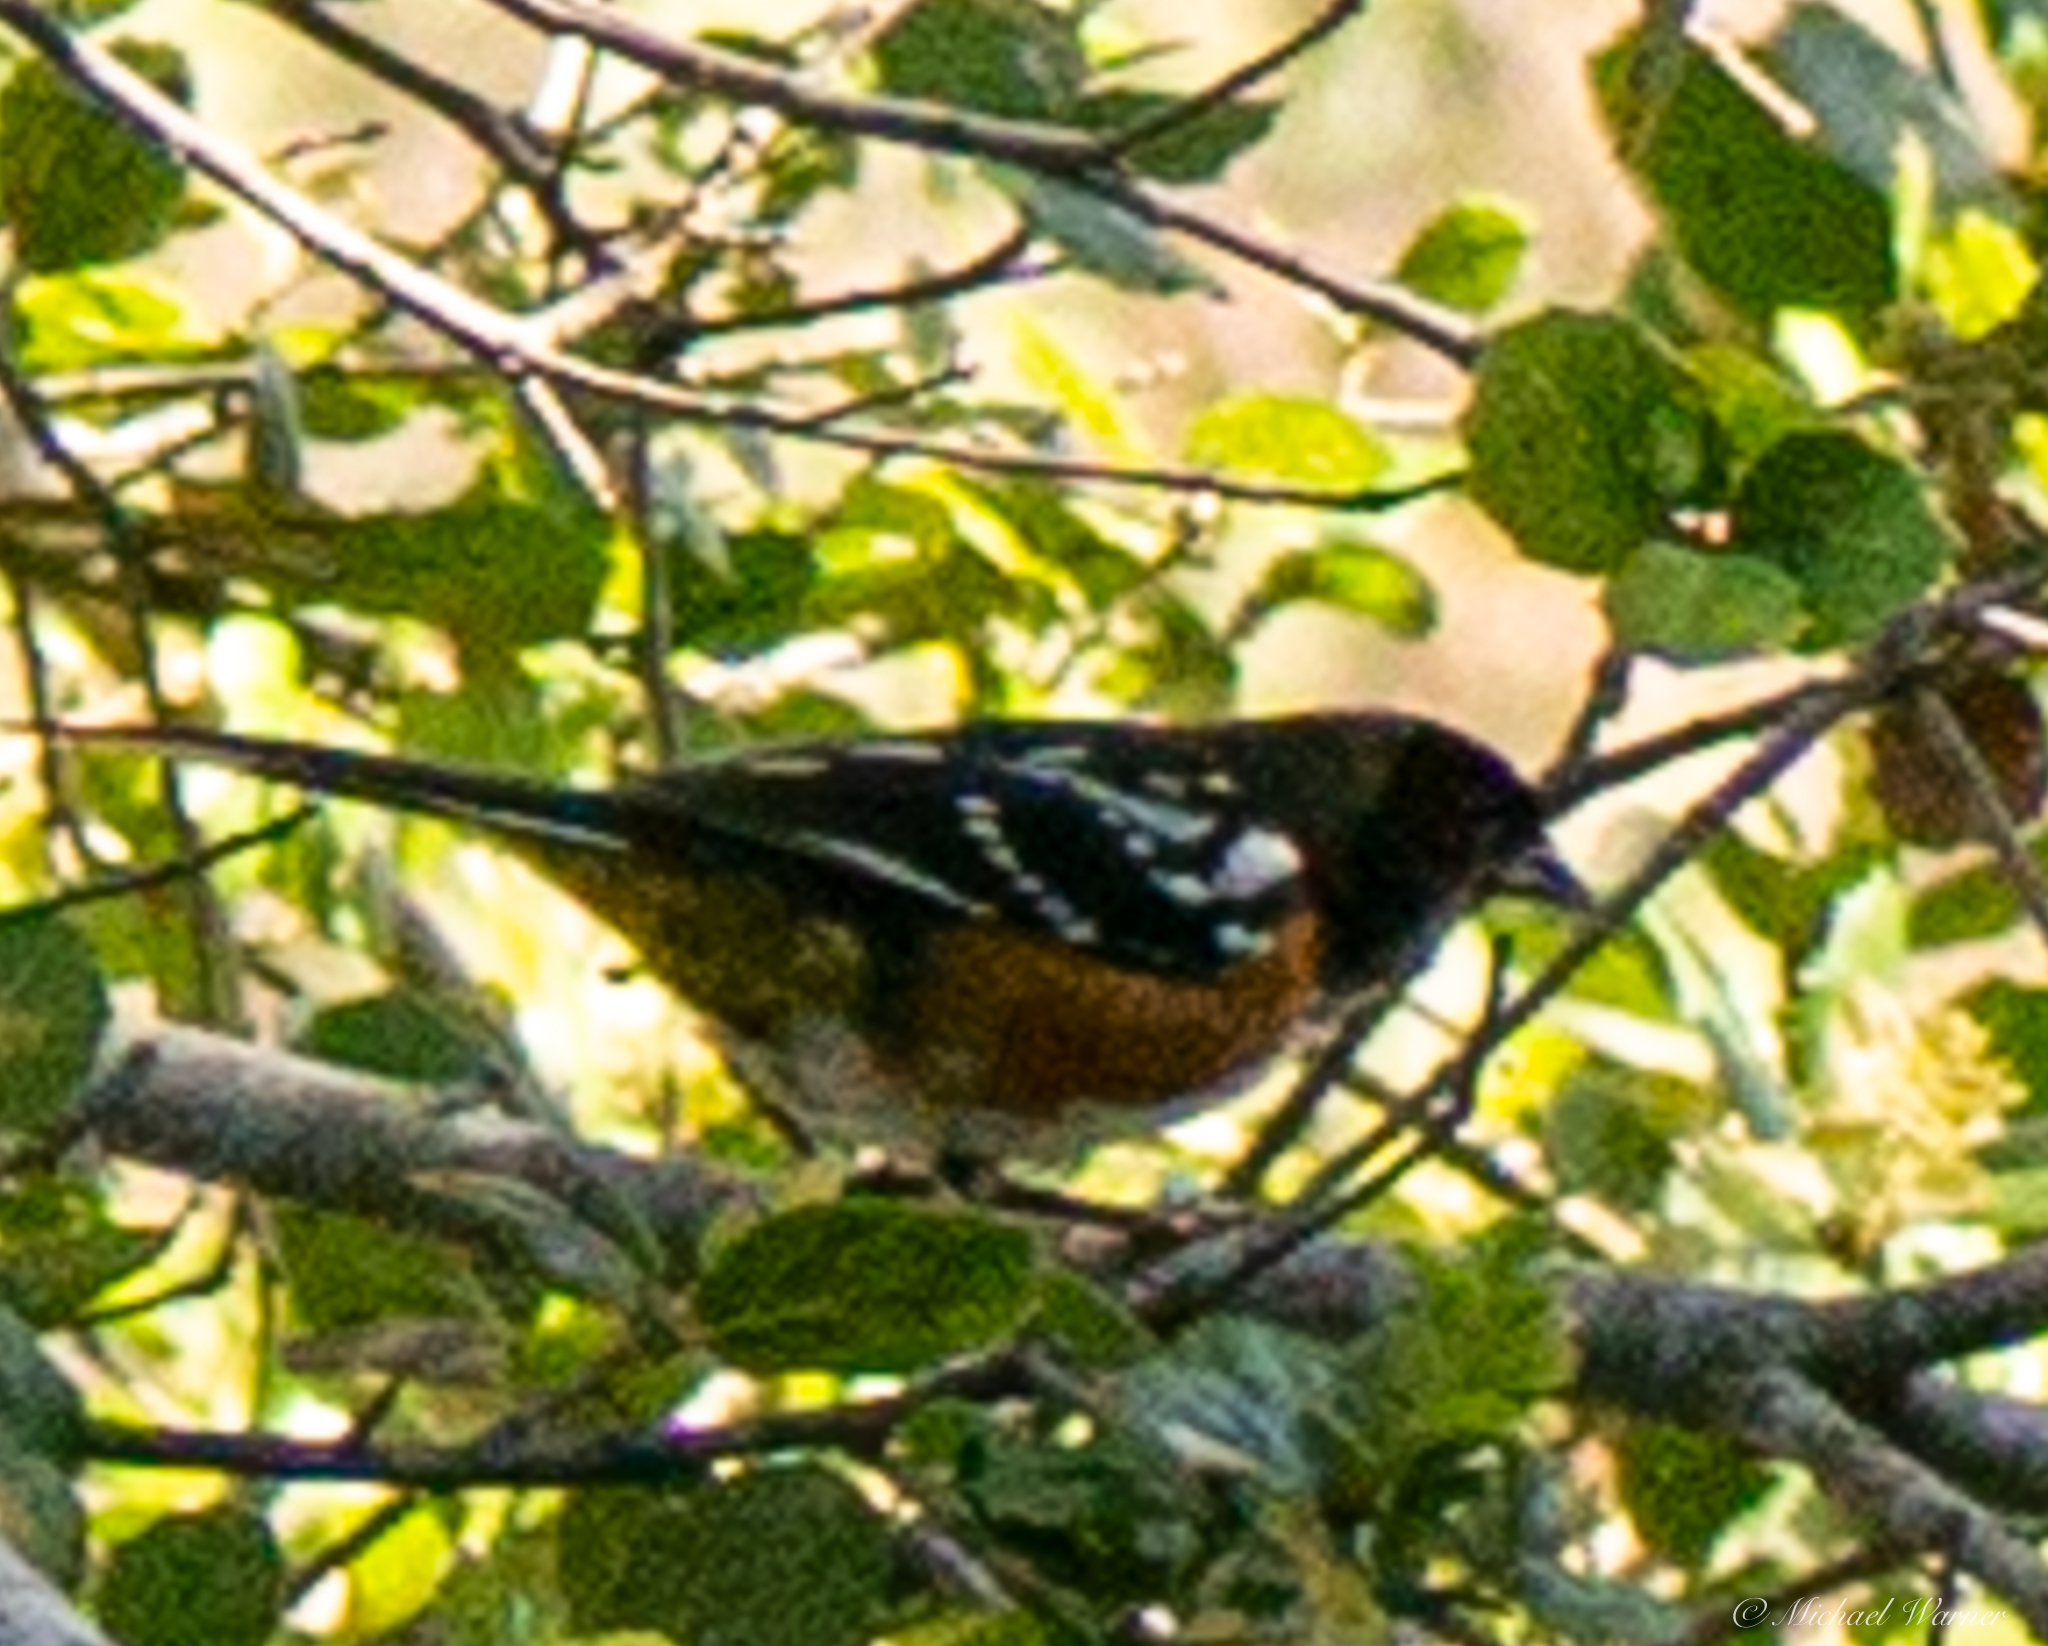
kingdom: Animalia
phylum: Chordata
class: Aves
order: Passeriformes
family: Passerellidae
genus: Pipilo
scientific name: Pipilo maculatus
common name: Spotted towhee
